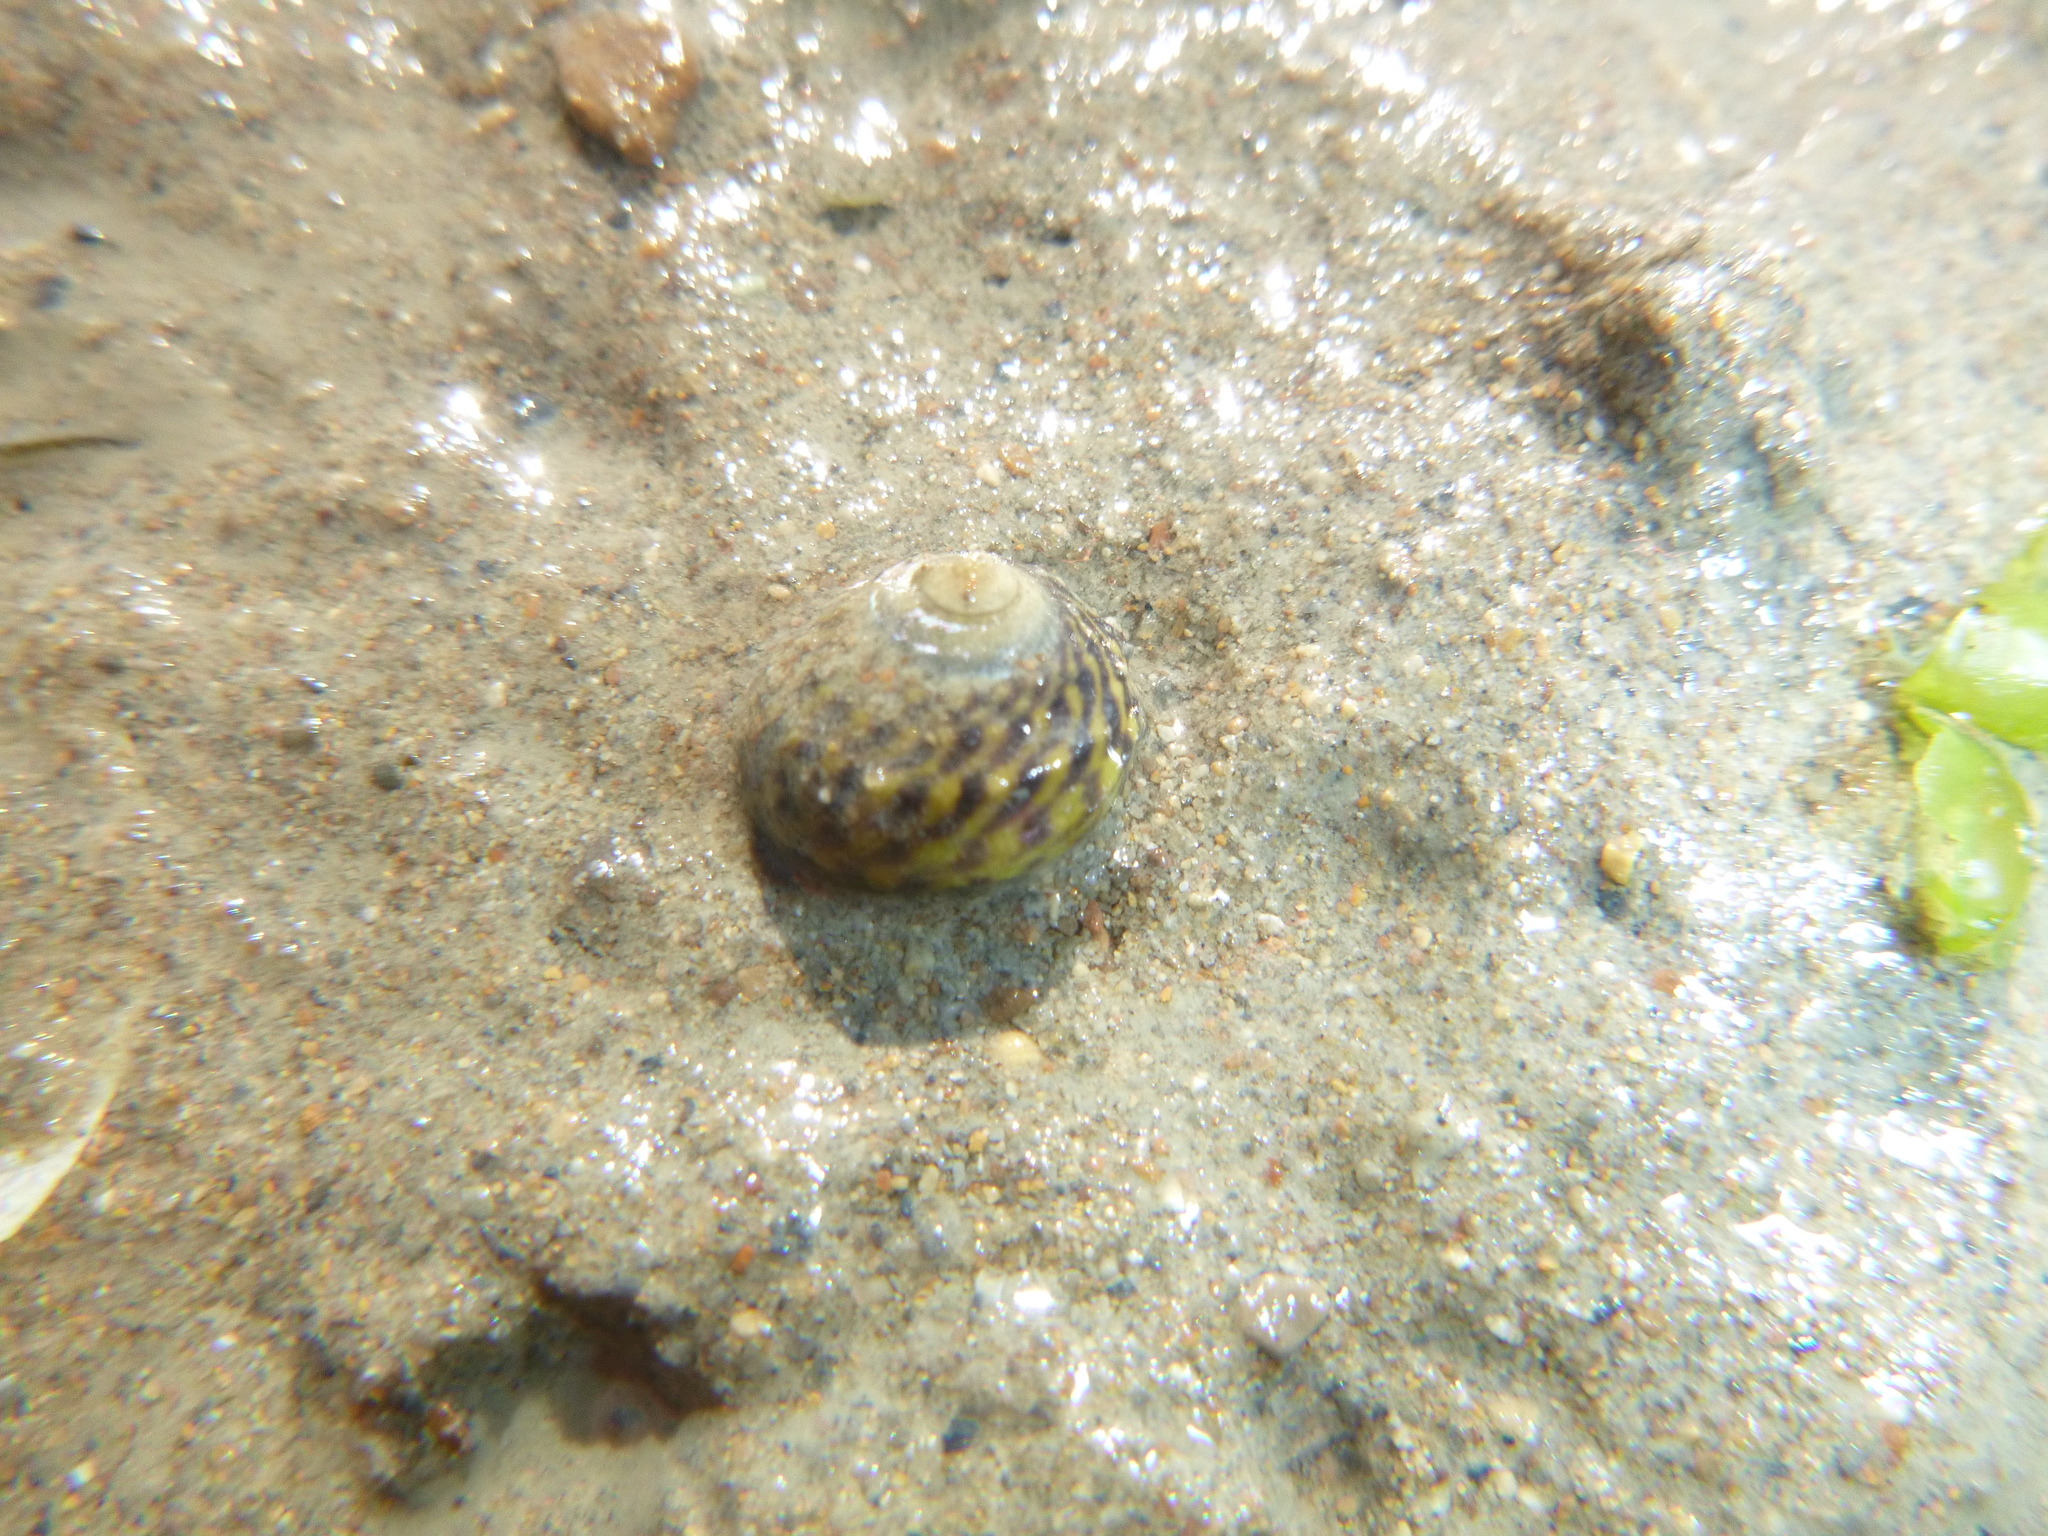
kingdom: Animalia
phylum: Mollusca
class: Gastropoda
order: Trochida
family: Trochidae
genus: Diloma
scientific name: Diloma subrostratum
